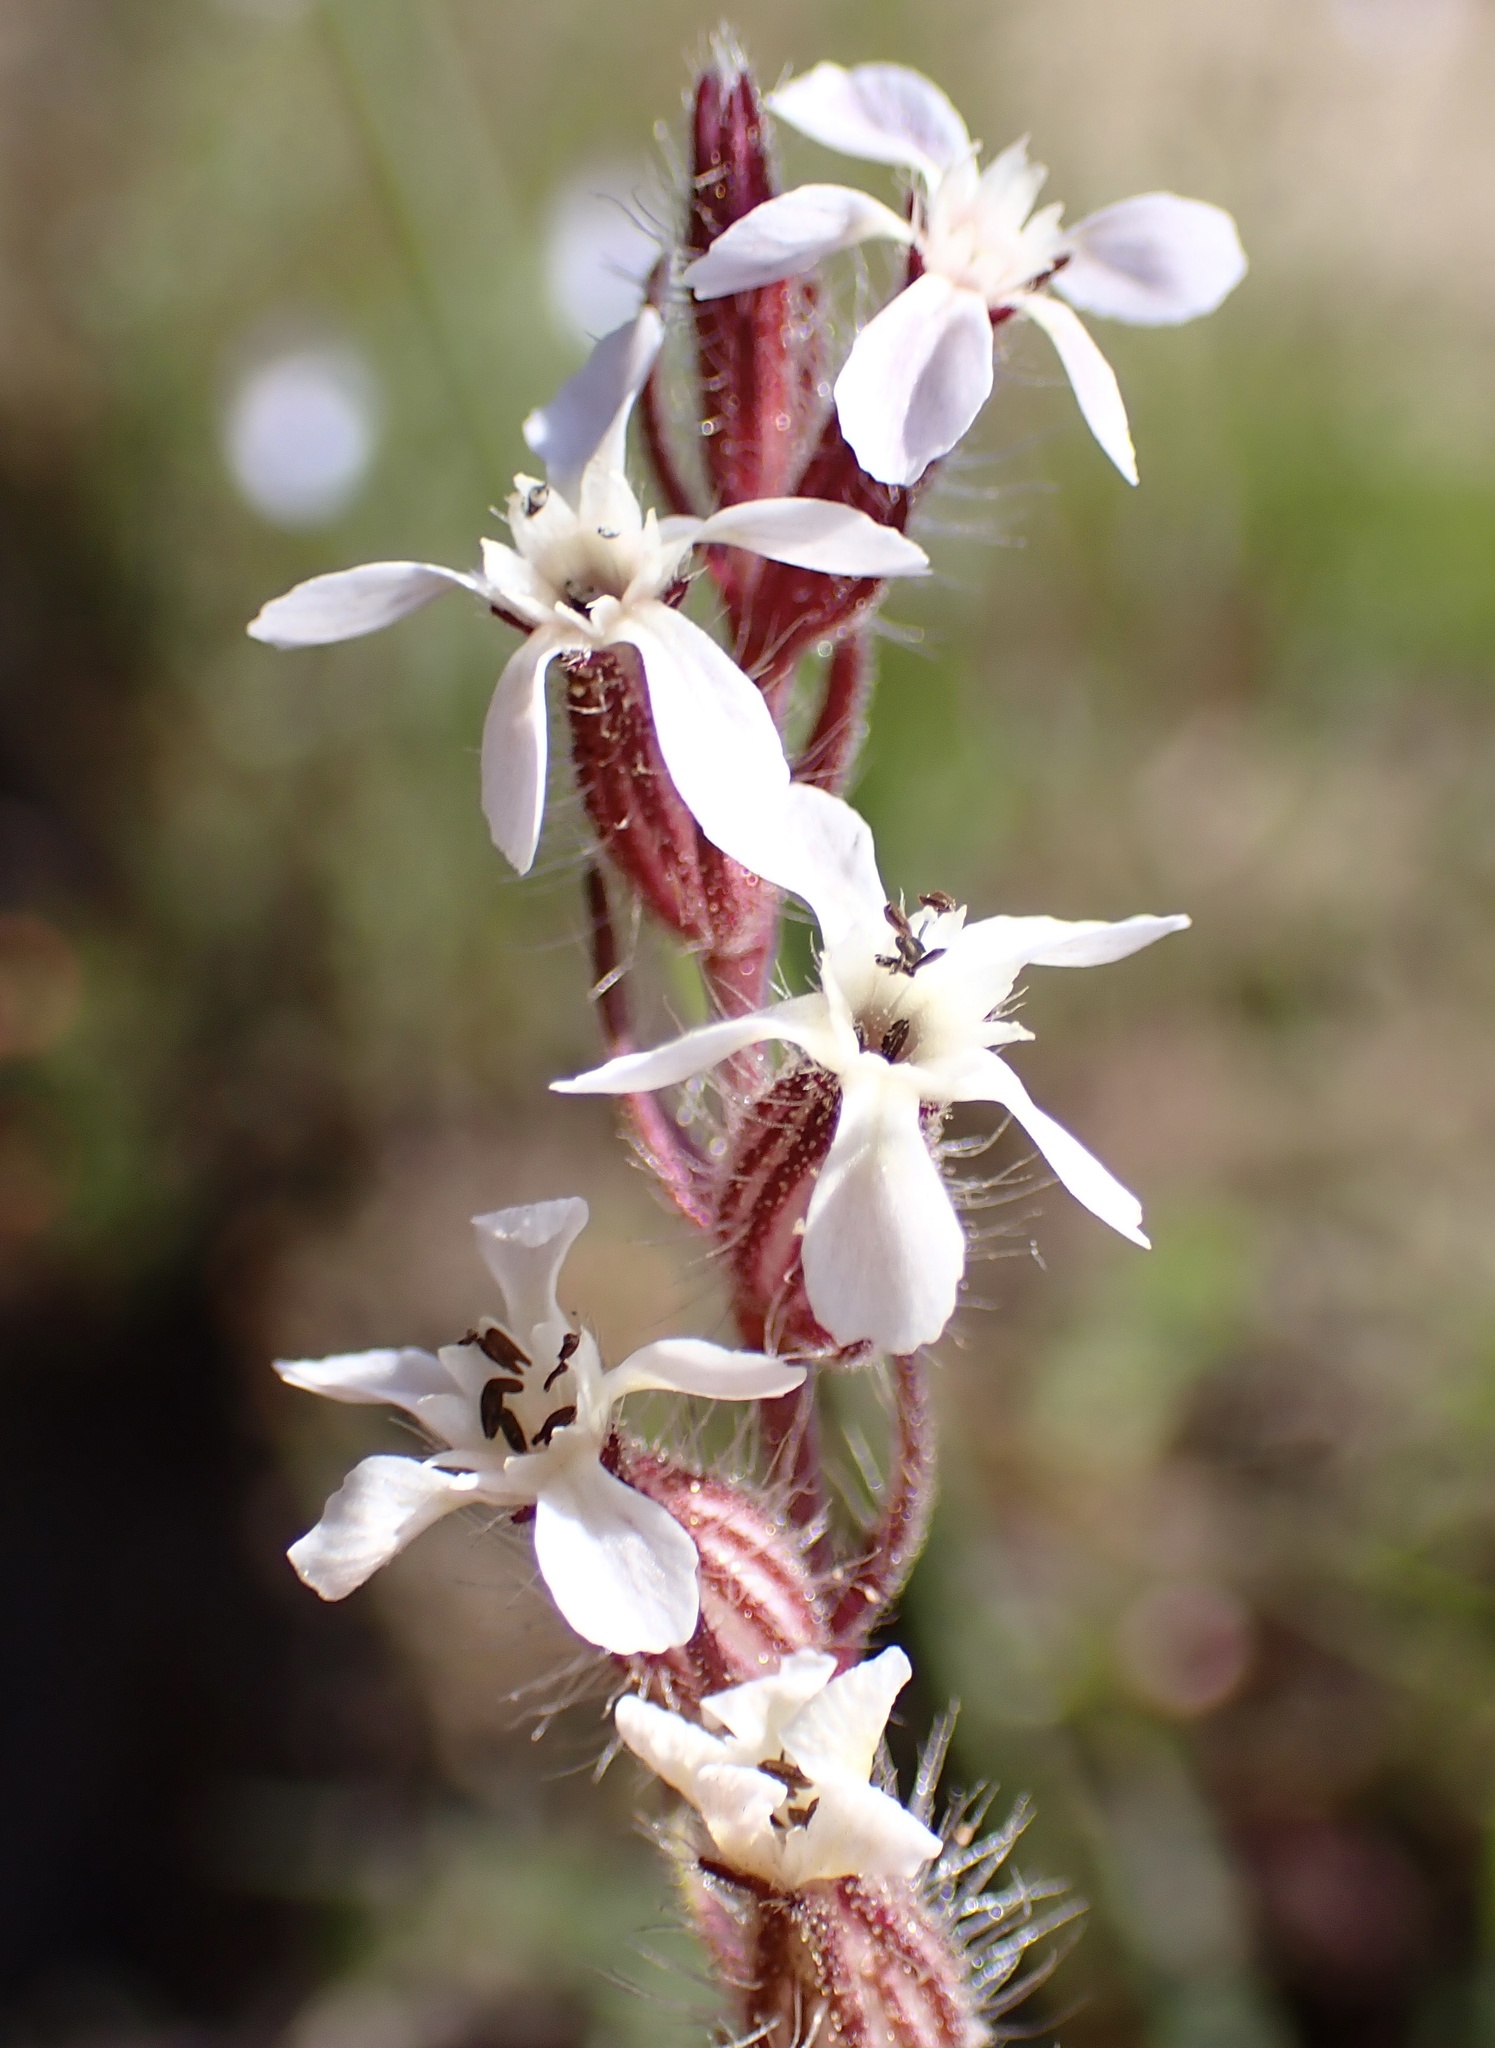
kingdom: Plantae
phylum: Tracheophyta
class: Magnoliopsida
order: Caryophyllales
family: Caryophyllaceae
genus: Silene
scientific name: Silene gallica
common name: Small-flowered catchfly
